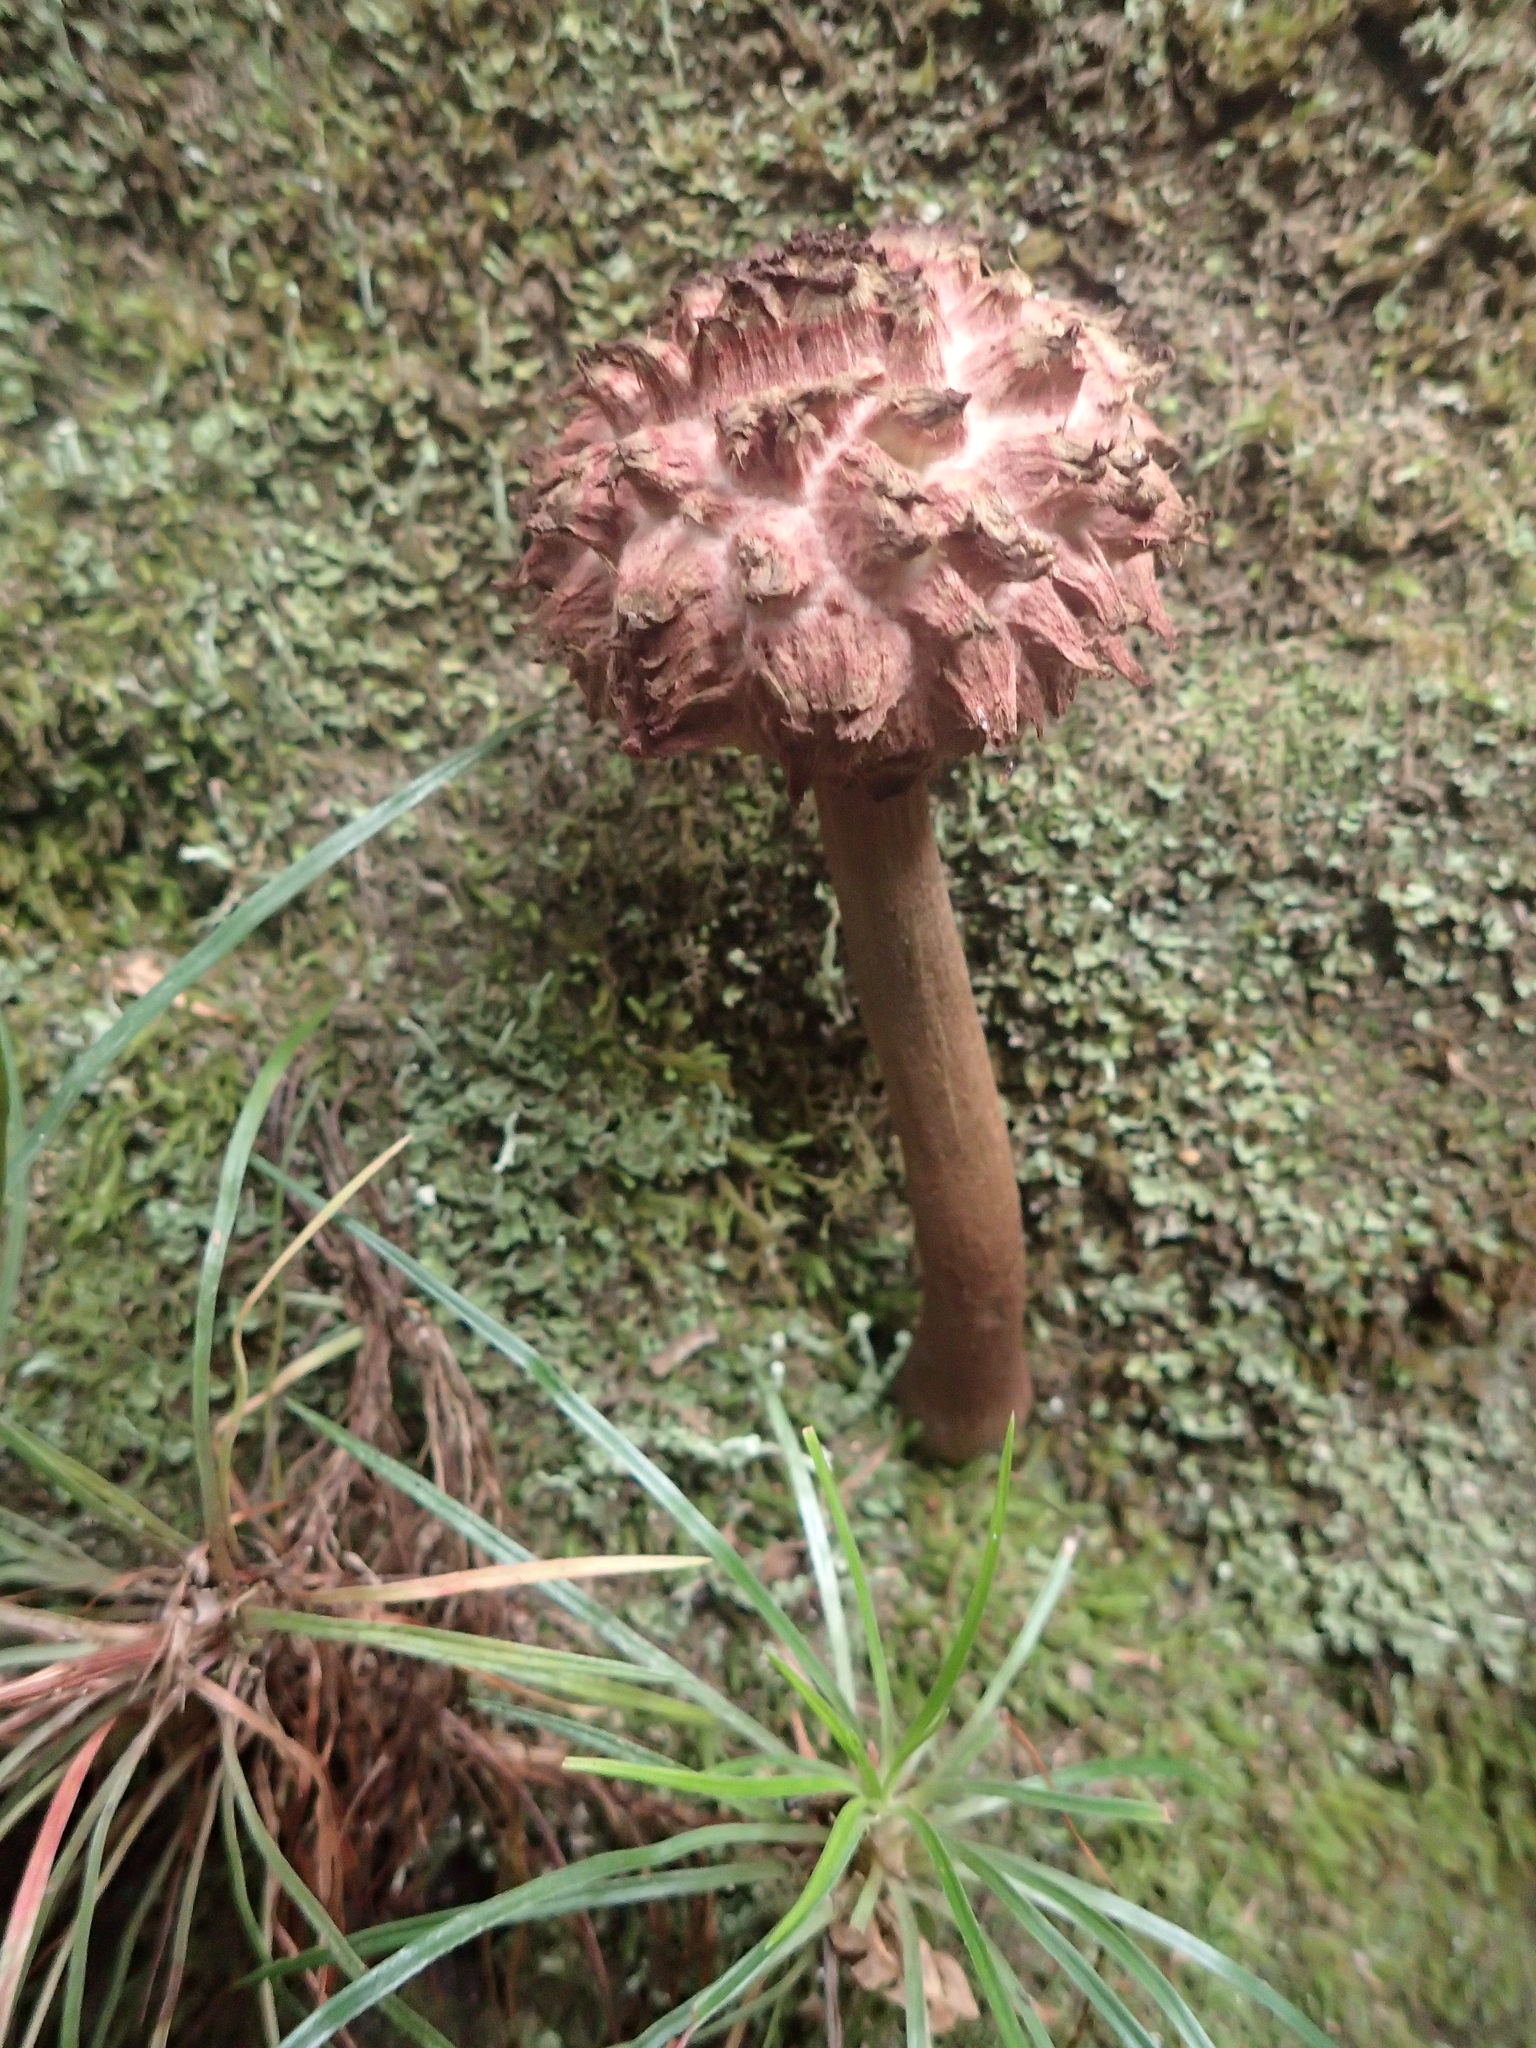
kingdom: Fungi
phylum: Basidiomycota
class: Agaricomycetes
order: Boletales
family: Boletaceae
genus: Boletellus
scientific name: Boletellus emodensis
